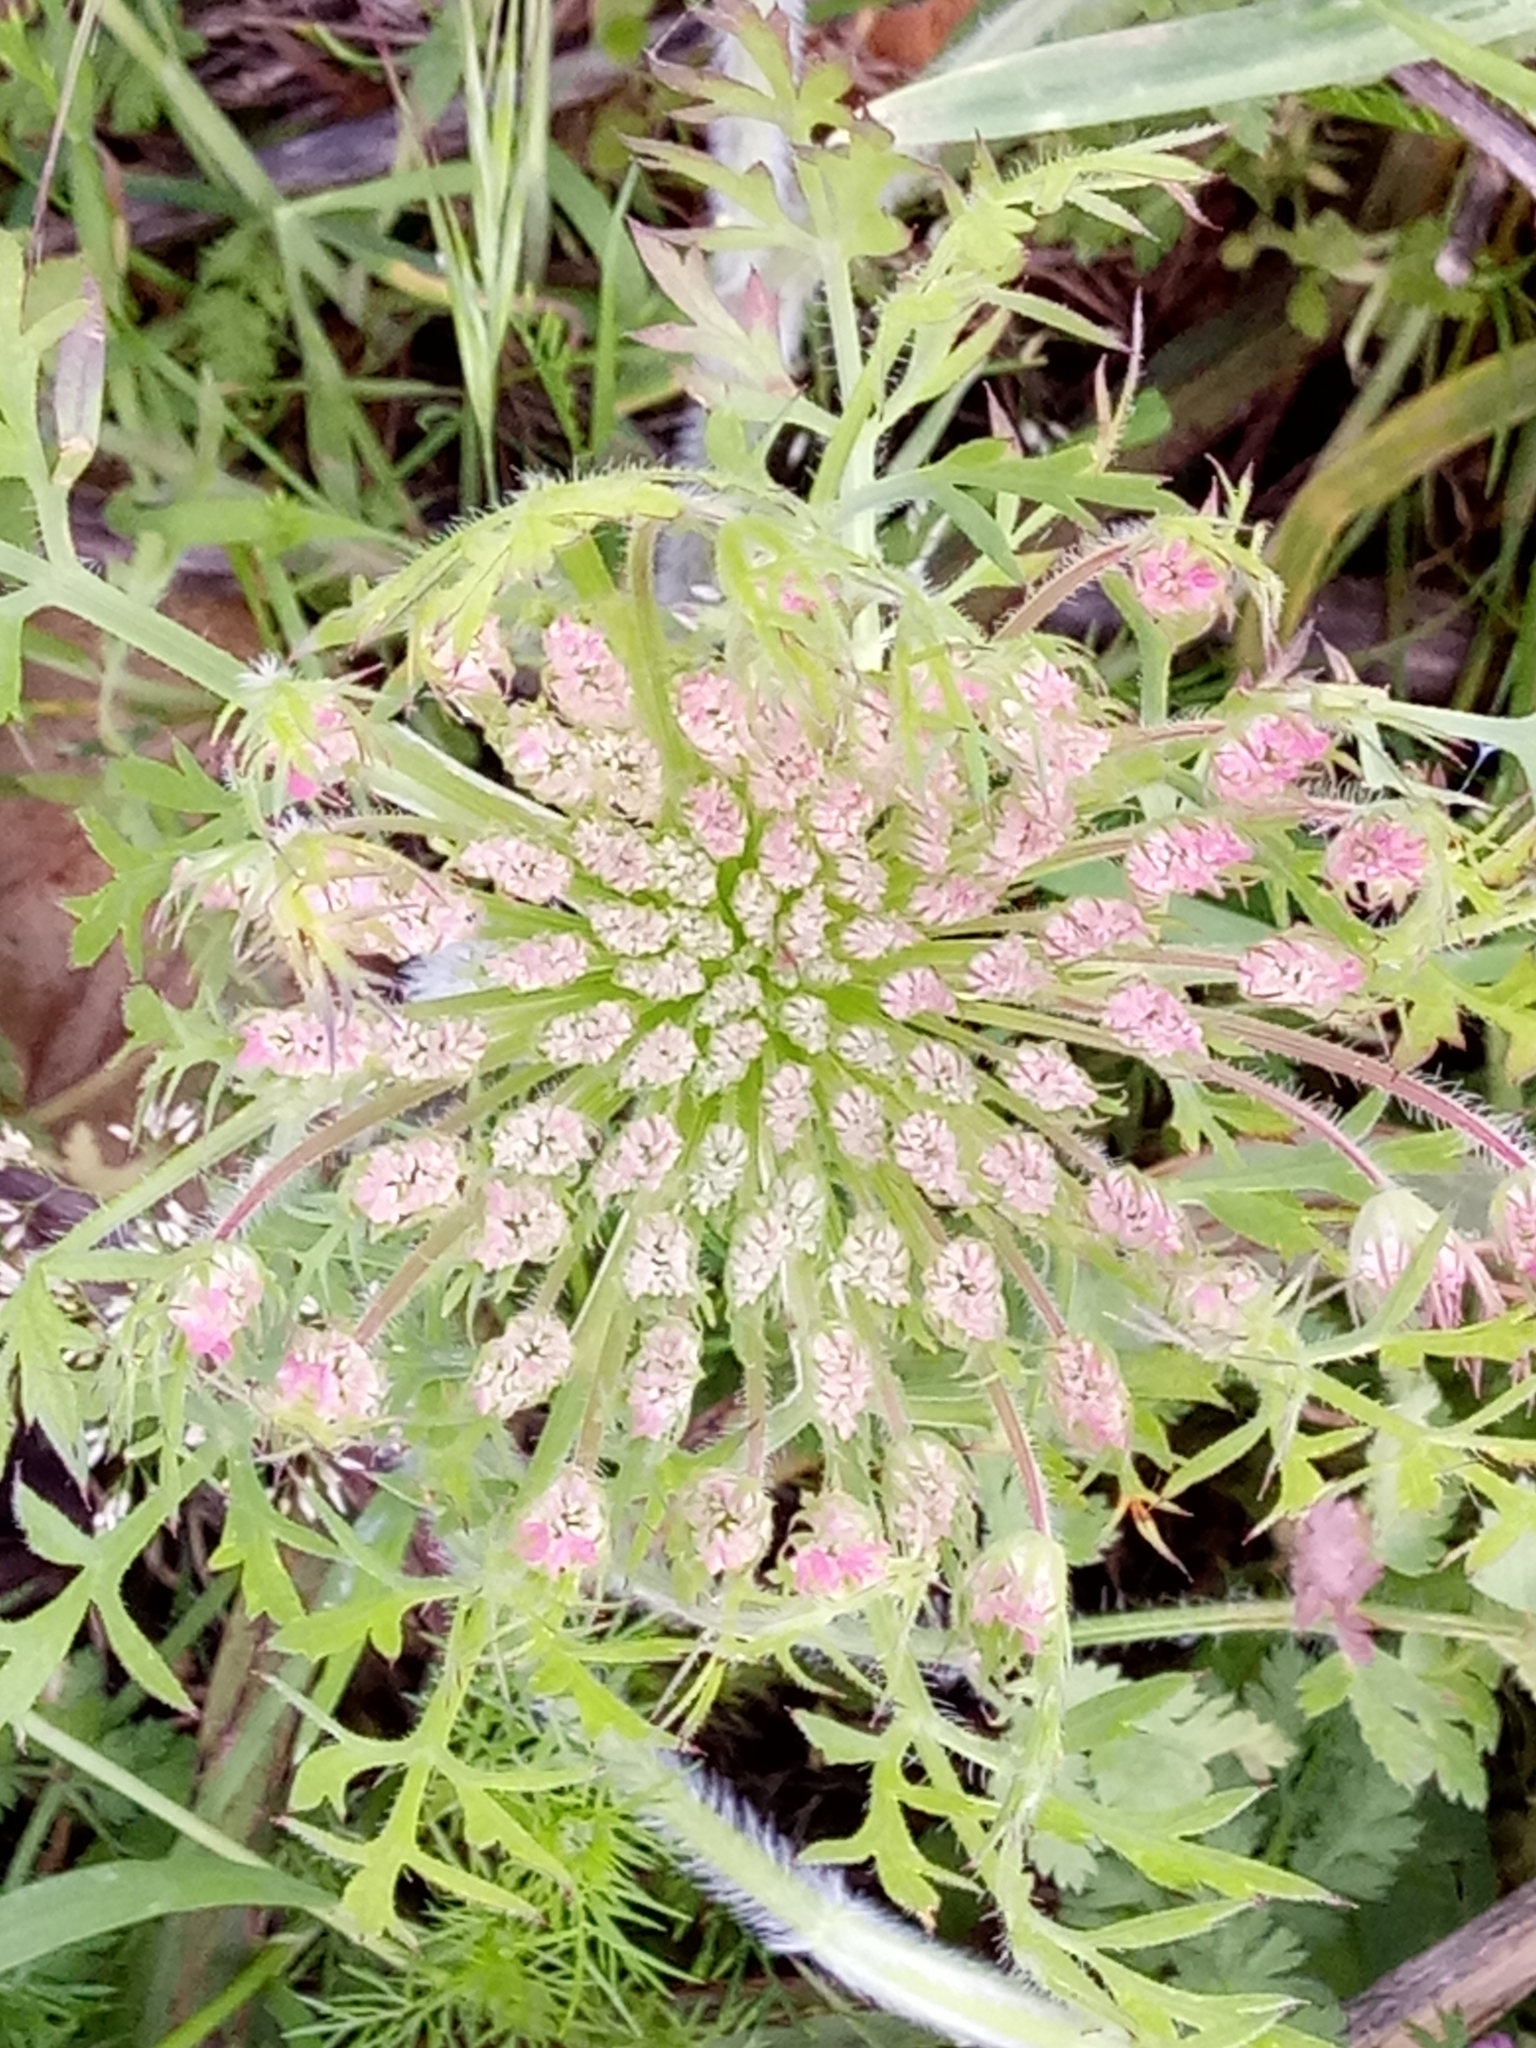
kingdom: Plantae
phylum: Tracheophyta
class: Magnoliopsida
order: Apiales
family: Apiaceae
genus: Daucus
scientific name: Daucus carota
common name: Wild carrot
